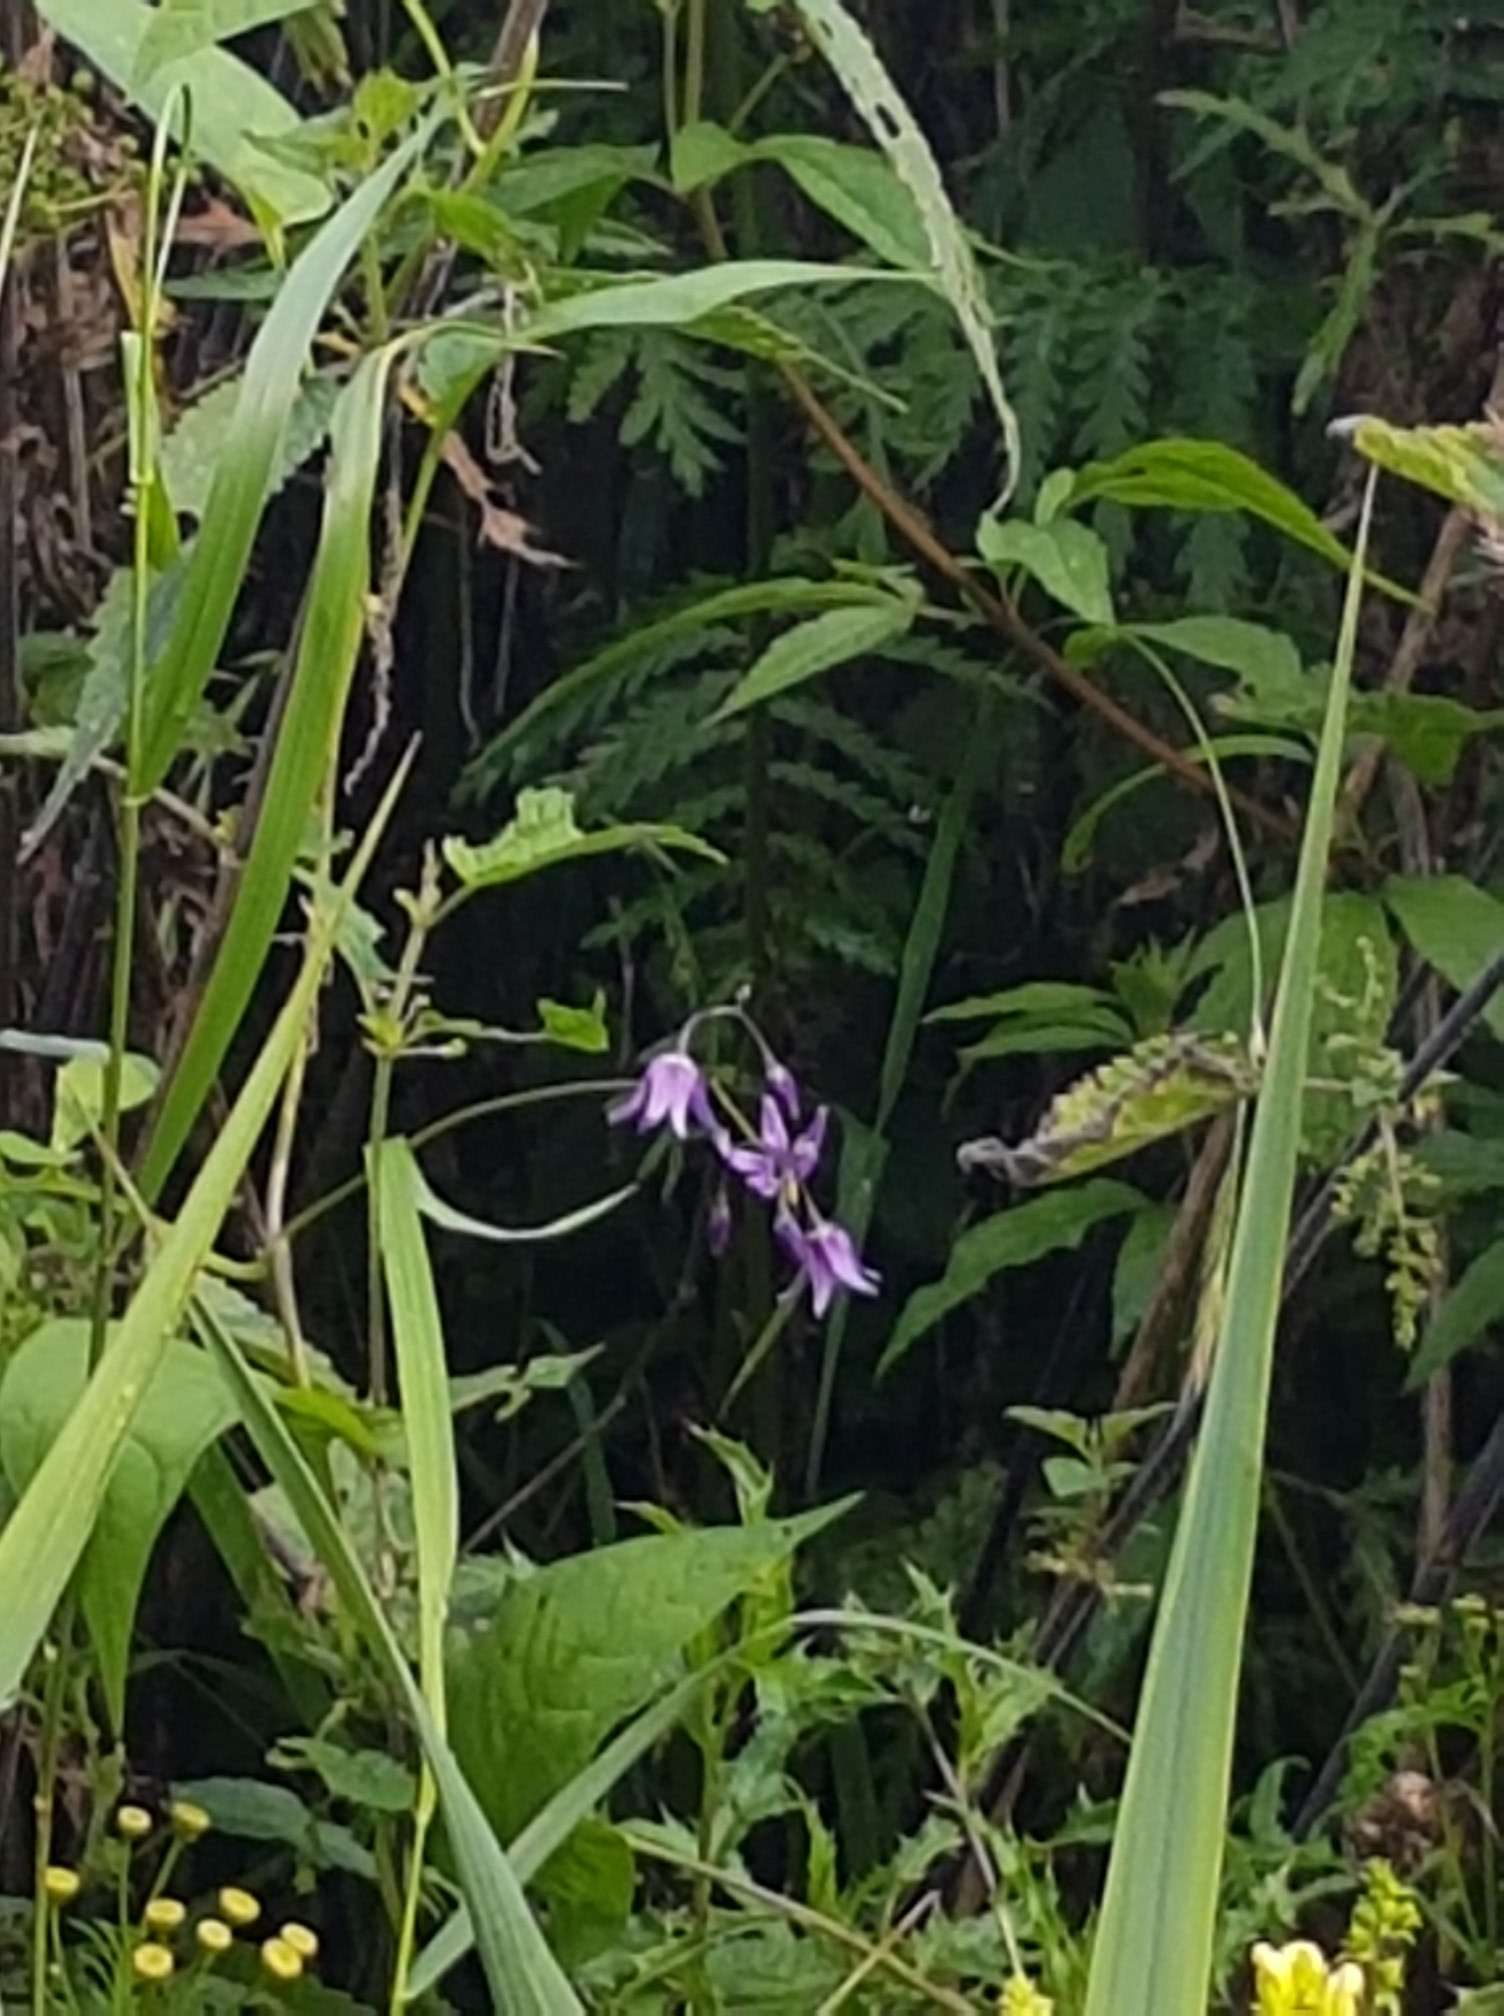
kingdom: Plantae
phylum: Tracheophyta
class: Magnoliopsida
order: Solanales
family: Solanaceae
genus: Solanum
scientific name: Solanum dulcamara
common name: Climbing nightshade
